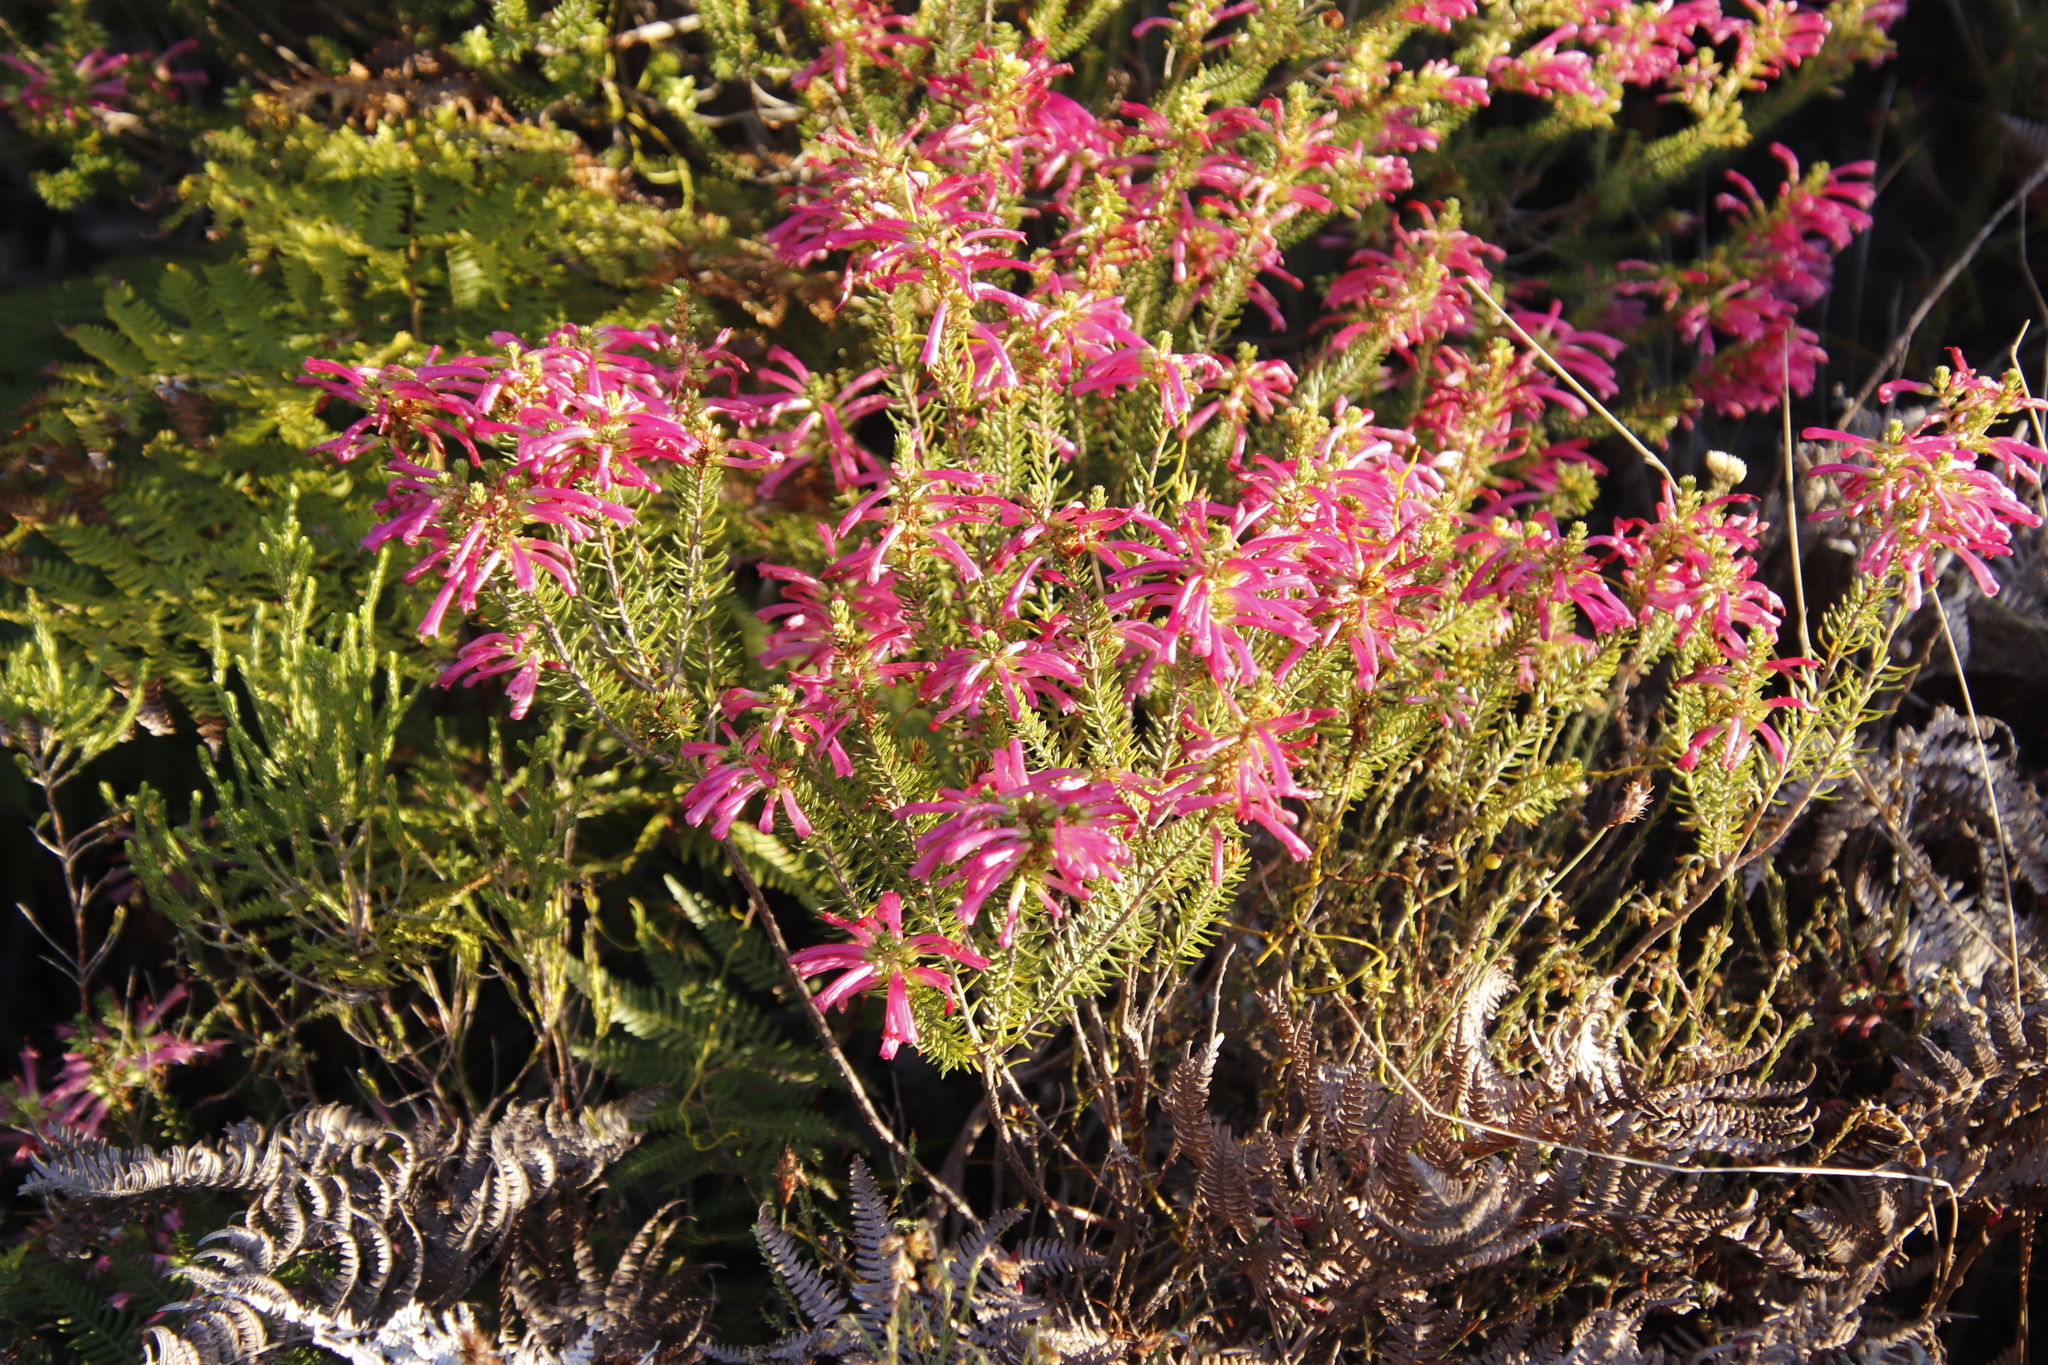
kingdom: Plantae
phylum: Tracheophyta
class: Magnoliopsida
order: Ericales
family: Ericaceae
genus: Erica
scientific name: Erica abietina
